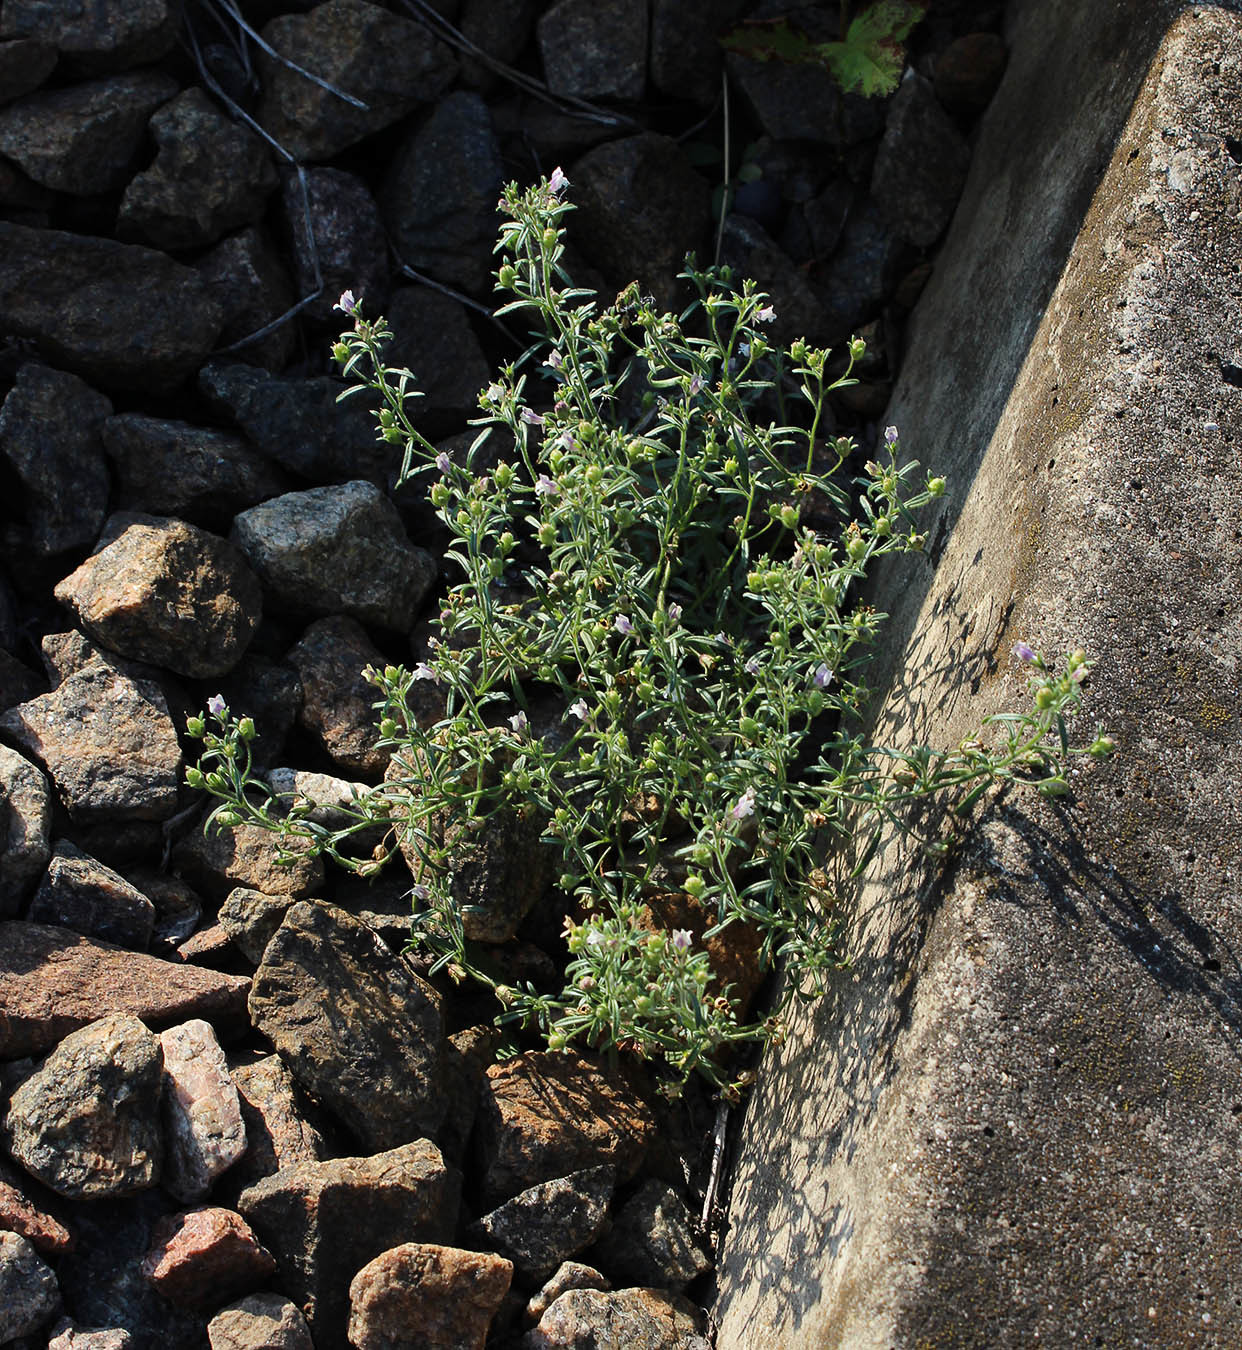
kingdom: Plantae
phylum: Tracheophyta
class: Magnoliopsida
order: Lamiales
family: Plantaginaceae
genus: Chaenorhinum
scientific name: Chaenorhinum minus
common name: Dwarf snapdragon
